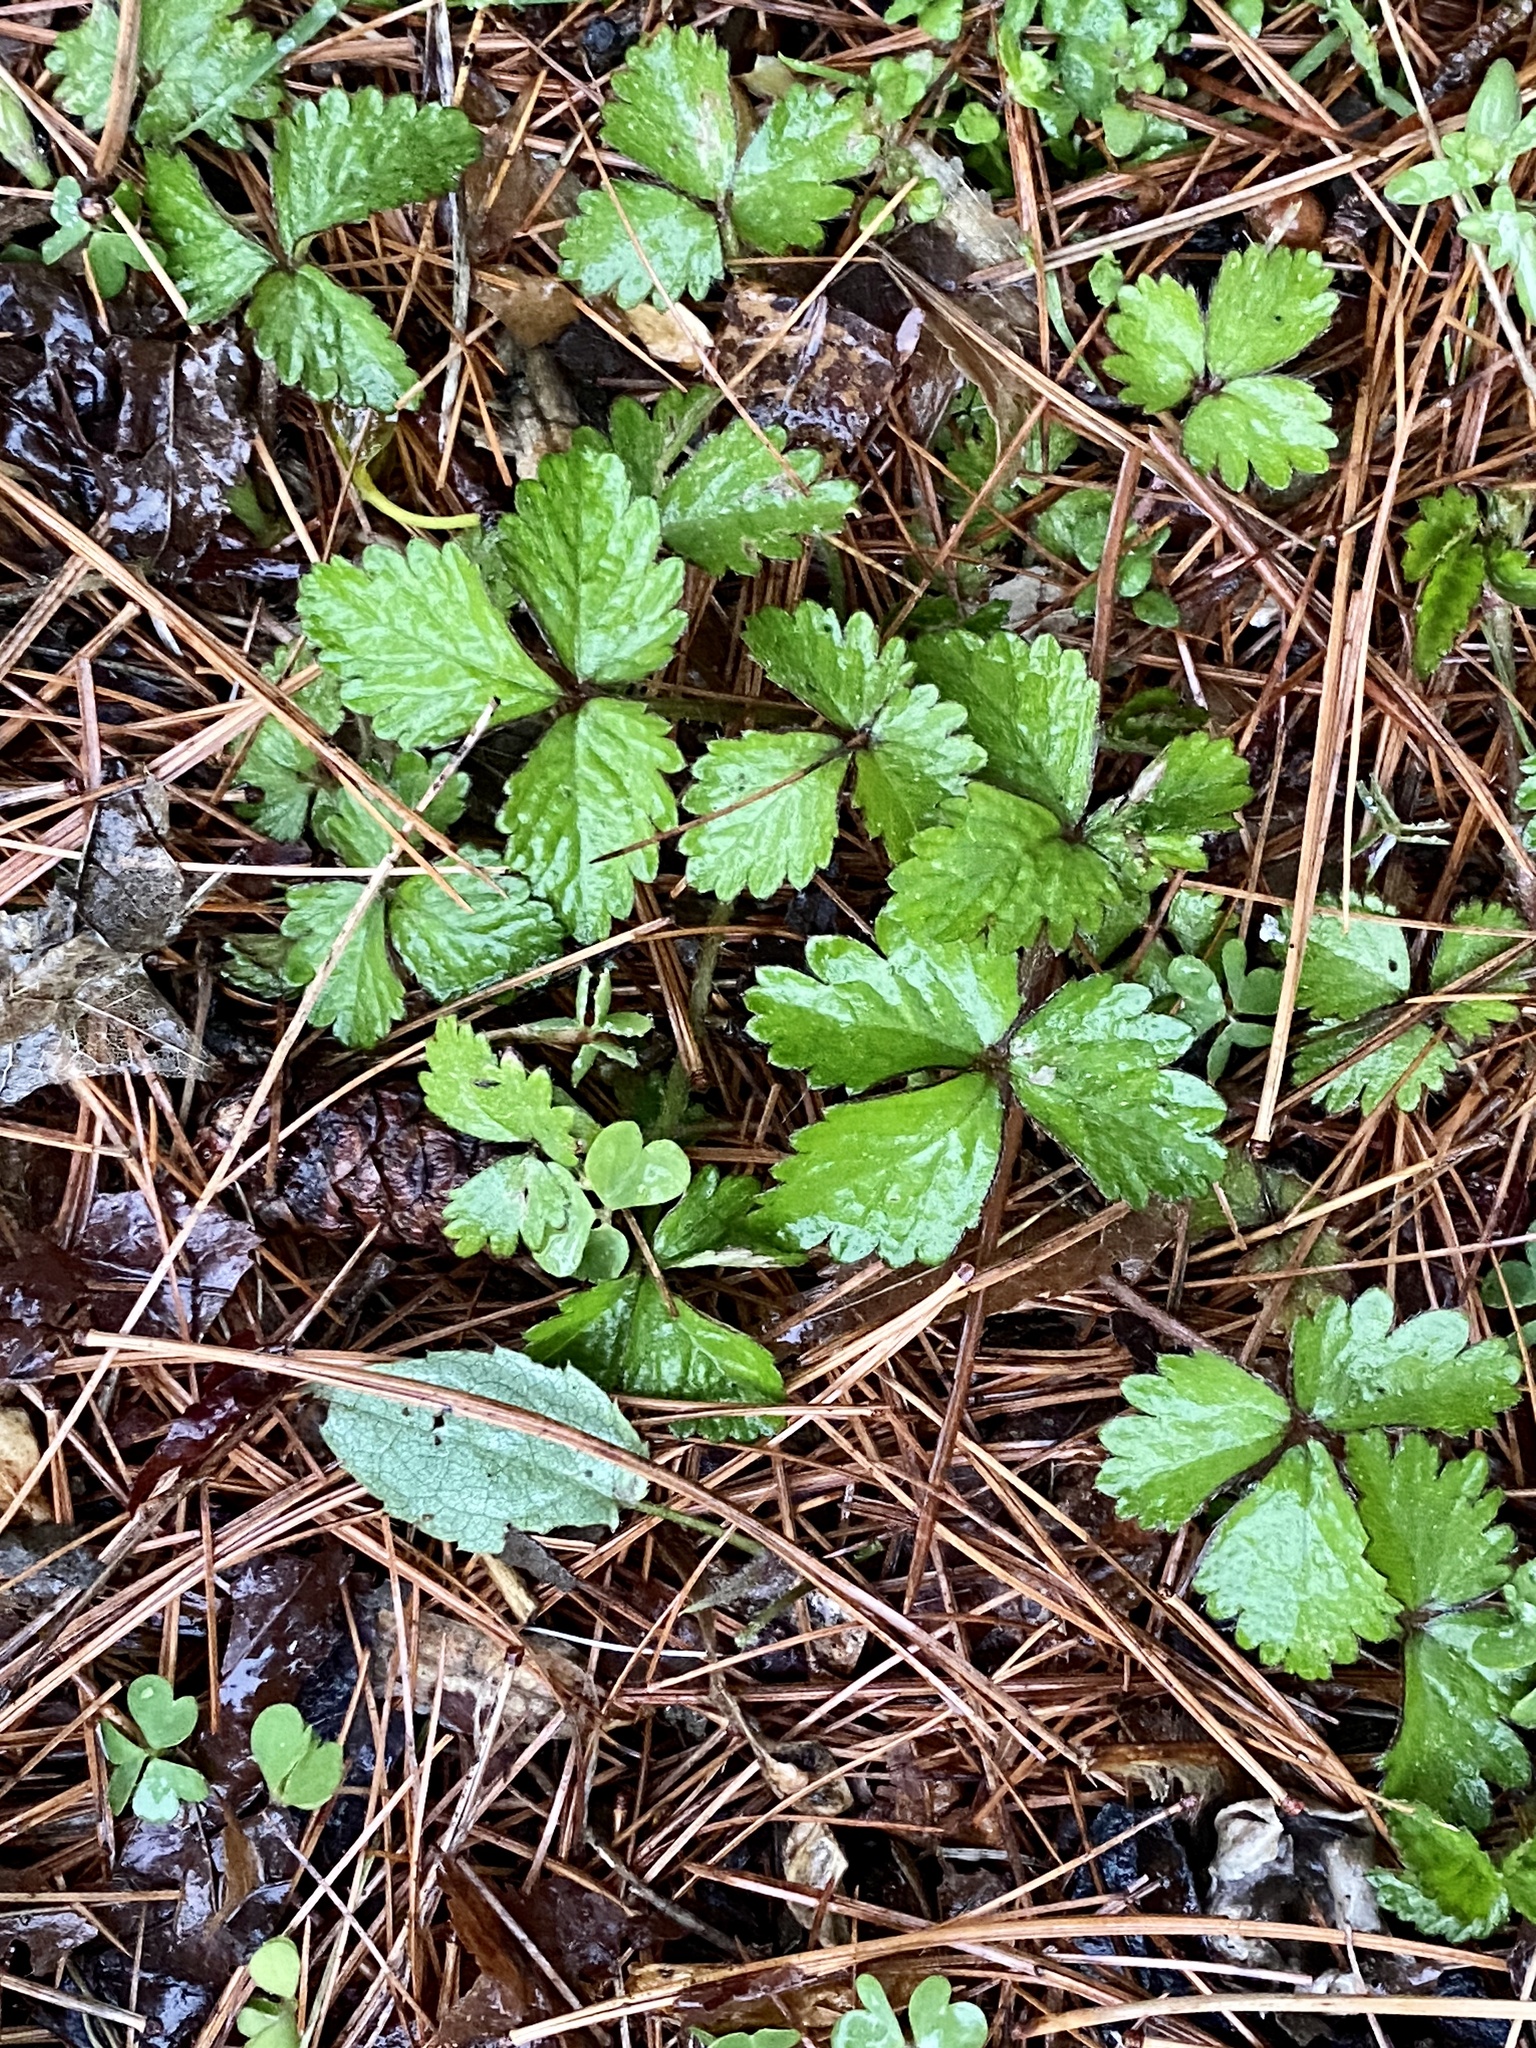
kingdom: Plantae
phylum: Tracheophyta
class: Magnoliopsida
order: Rosales
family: Rosaceae
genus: Potentilla
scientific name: Potentilla indica
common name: Yellow-flowered strawberry
